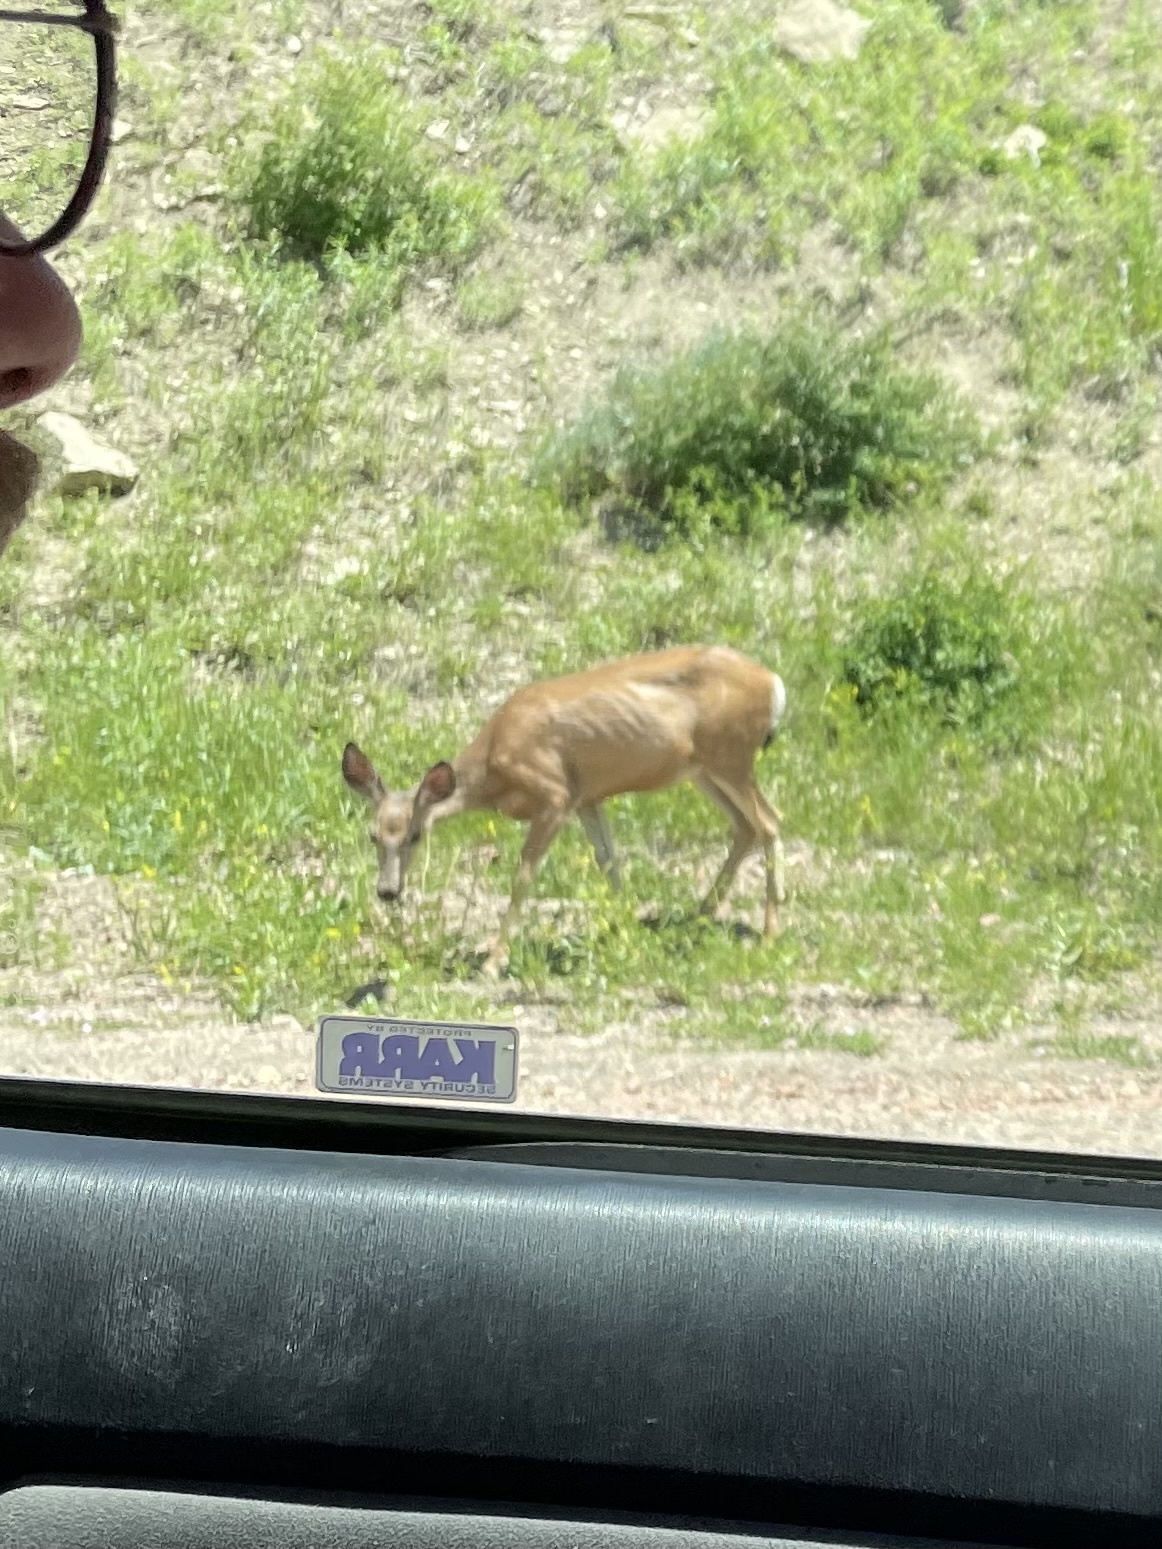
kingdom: Animalia
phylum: Chordata
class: Mammalia
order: Artiodactyla
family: Cervidae
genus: Odocoileus
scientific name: Odocoileus hemionus
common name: Mule deer
